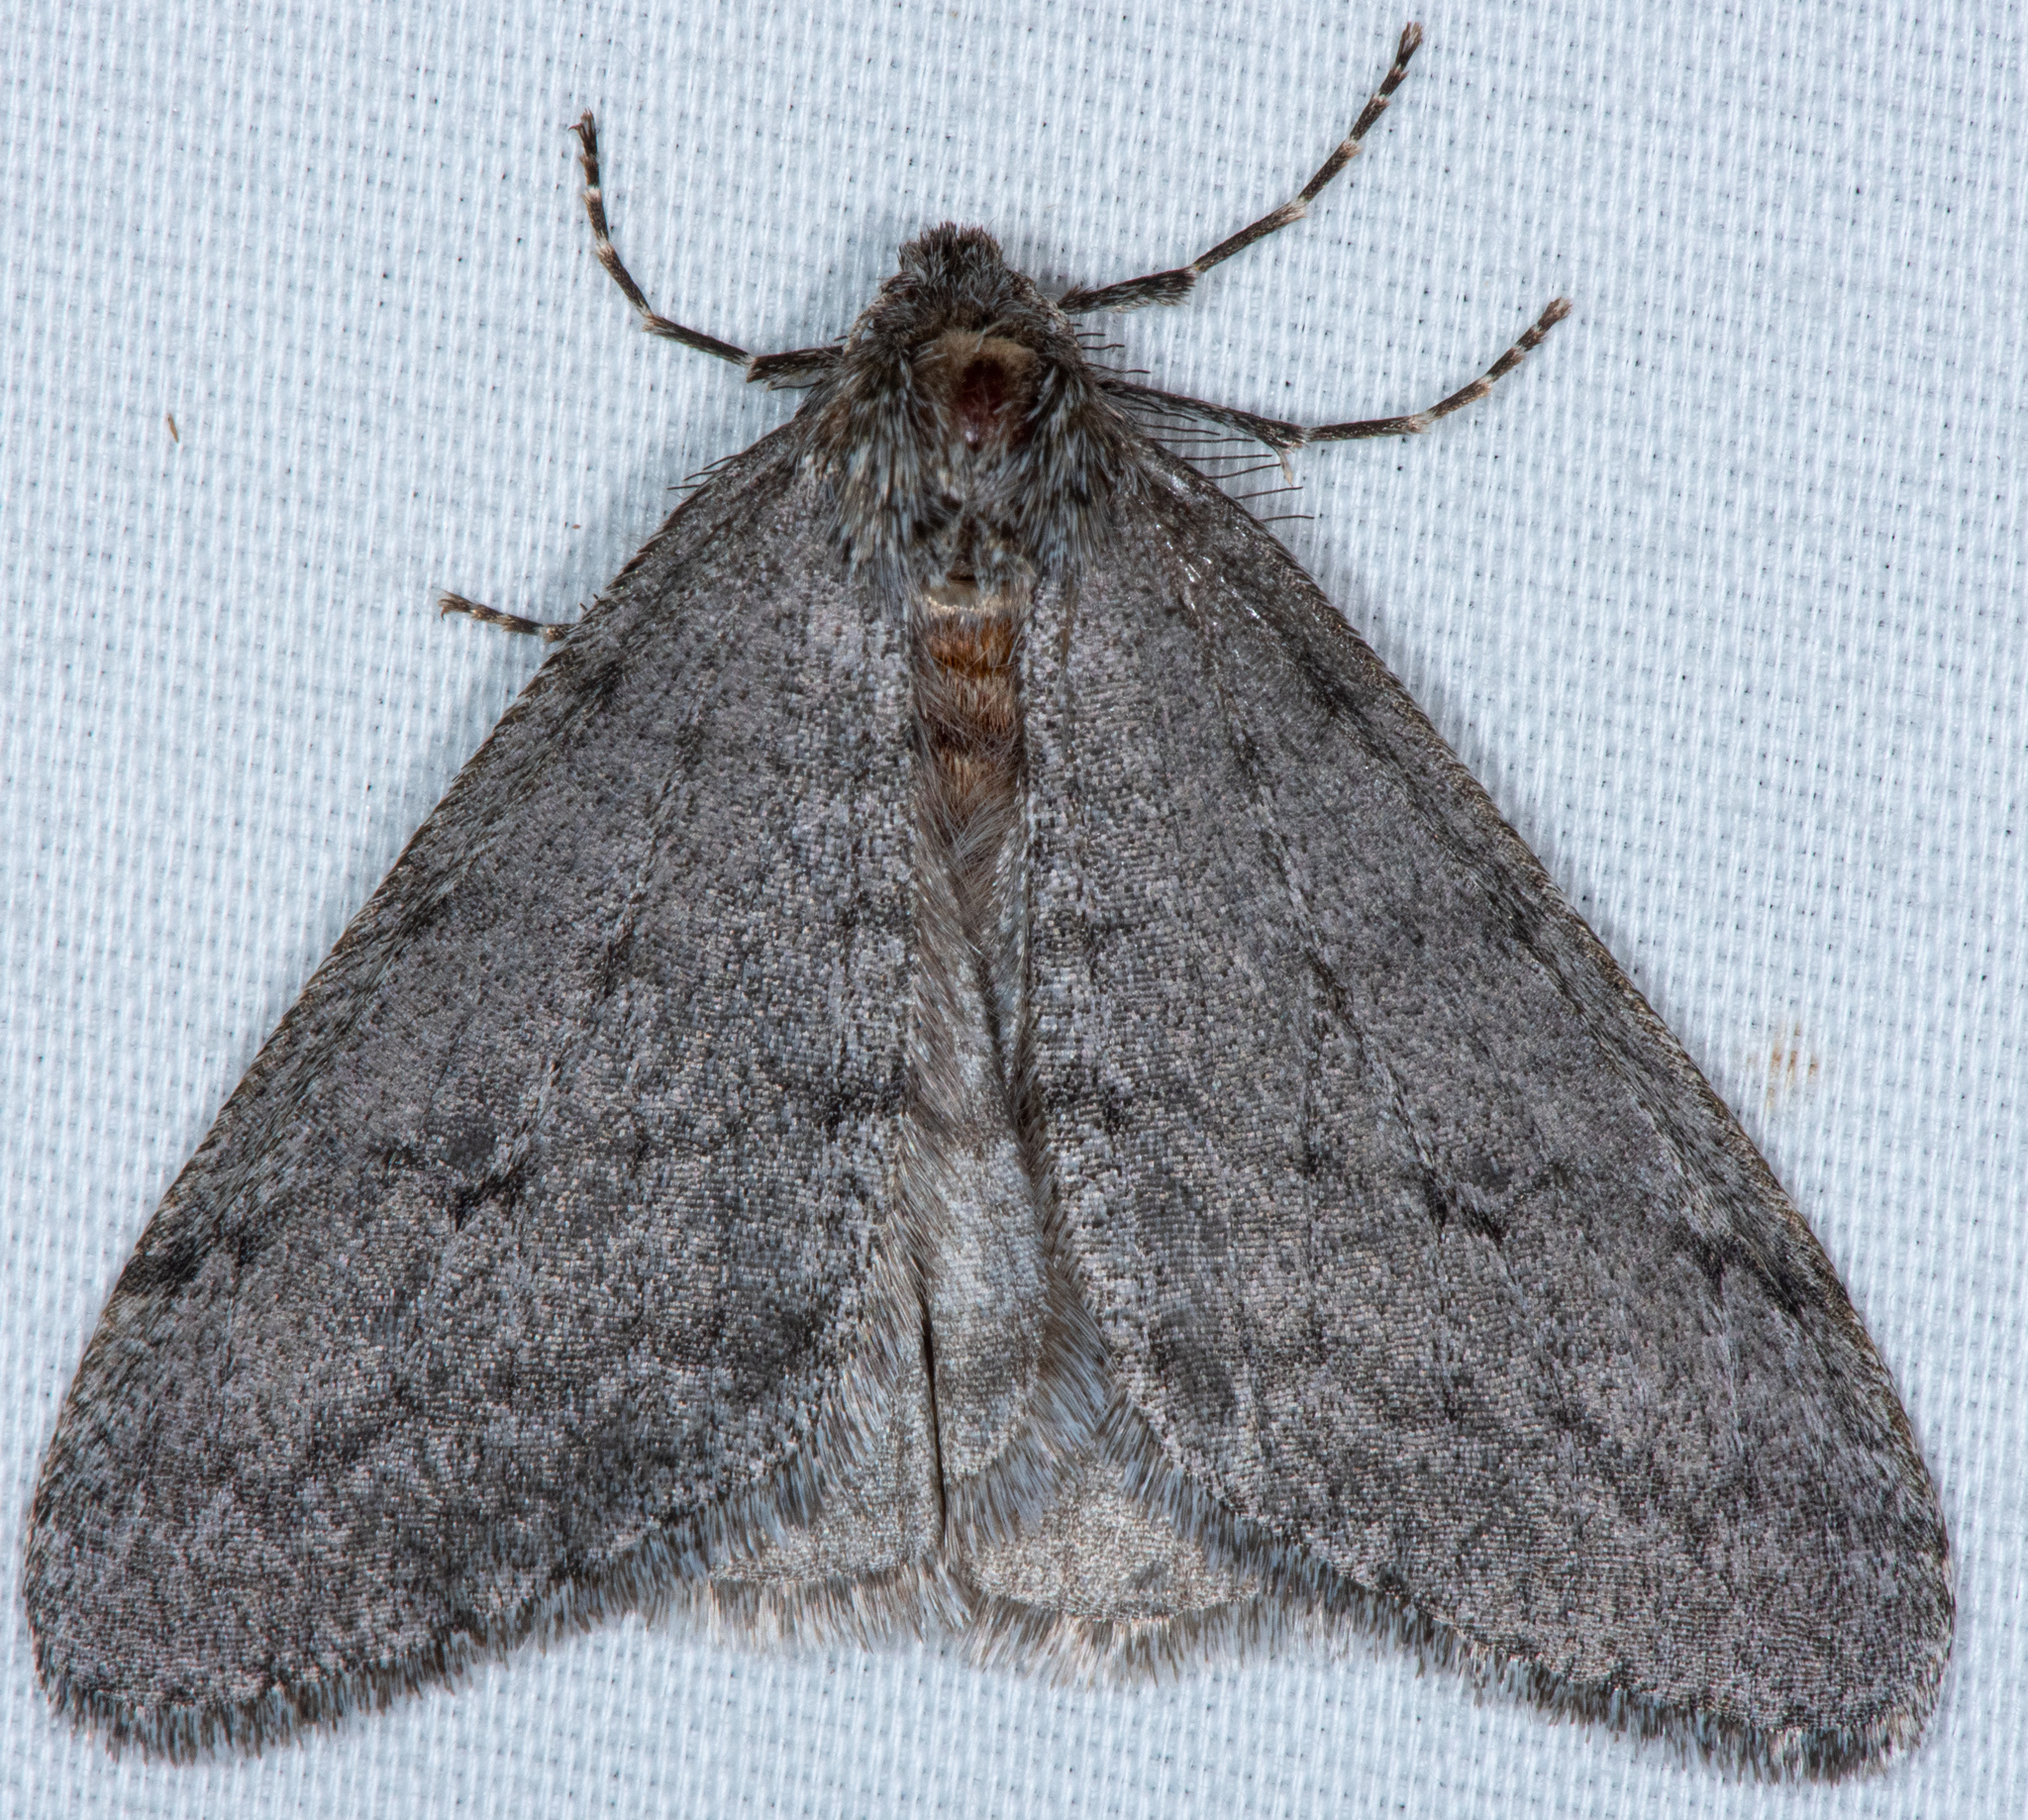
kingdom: Animalia
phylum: Arthropoda
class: Insecta
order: Lepidoptera
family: Geometridae
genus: Phigalia
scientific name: Phigalia plumogeraria
